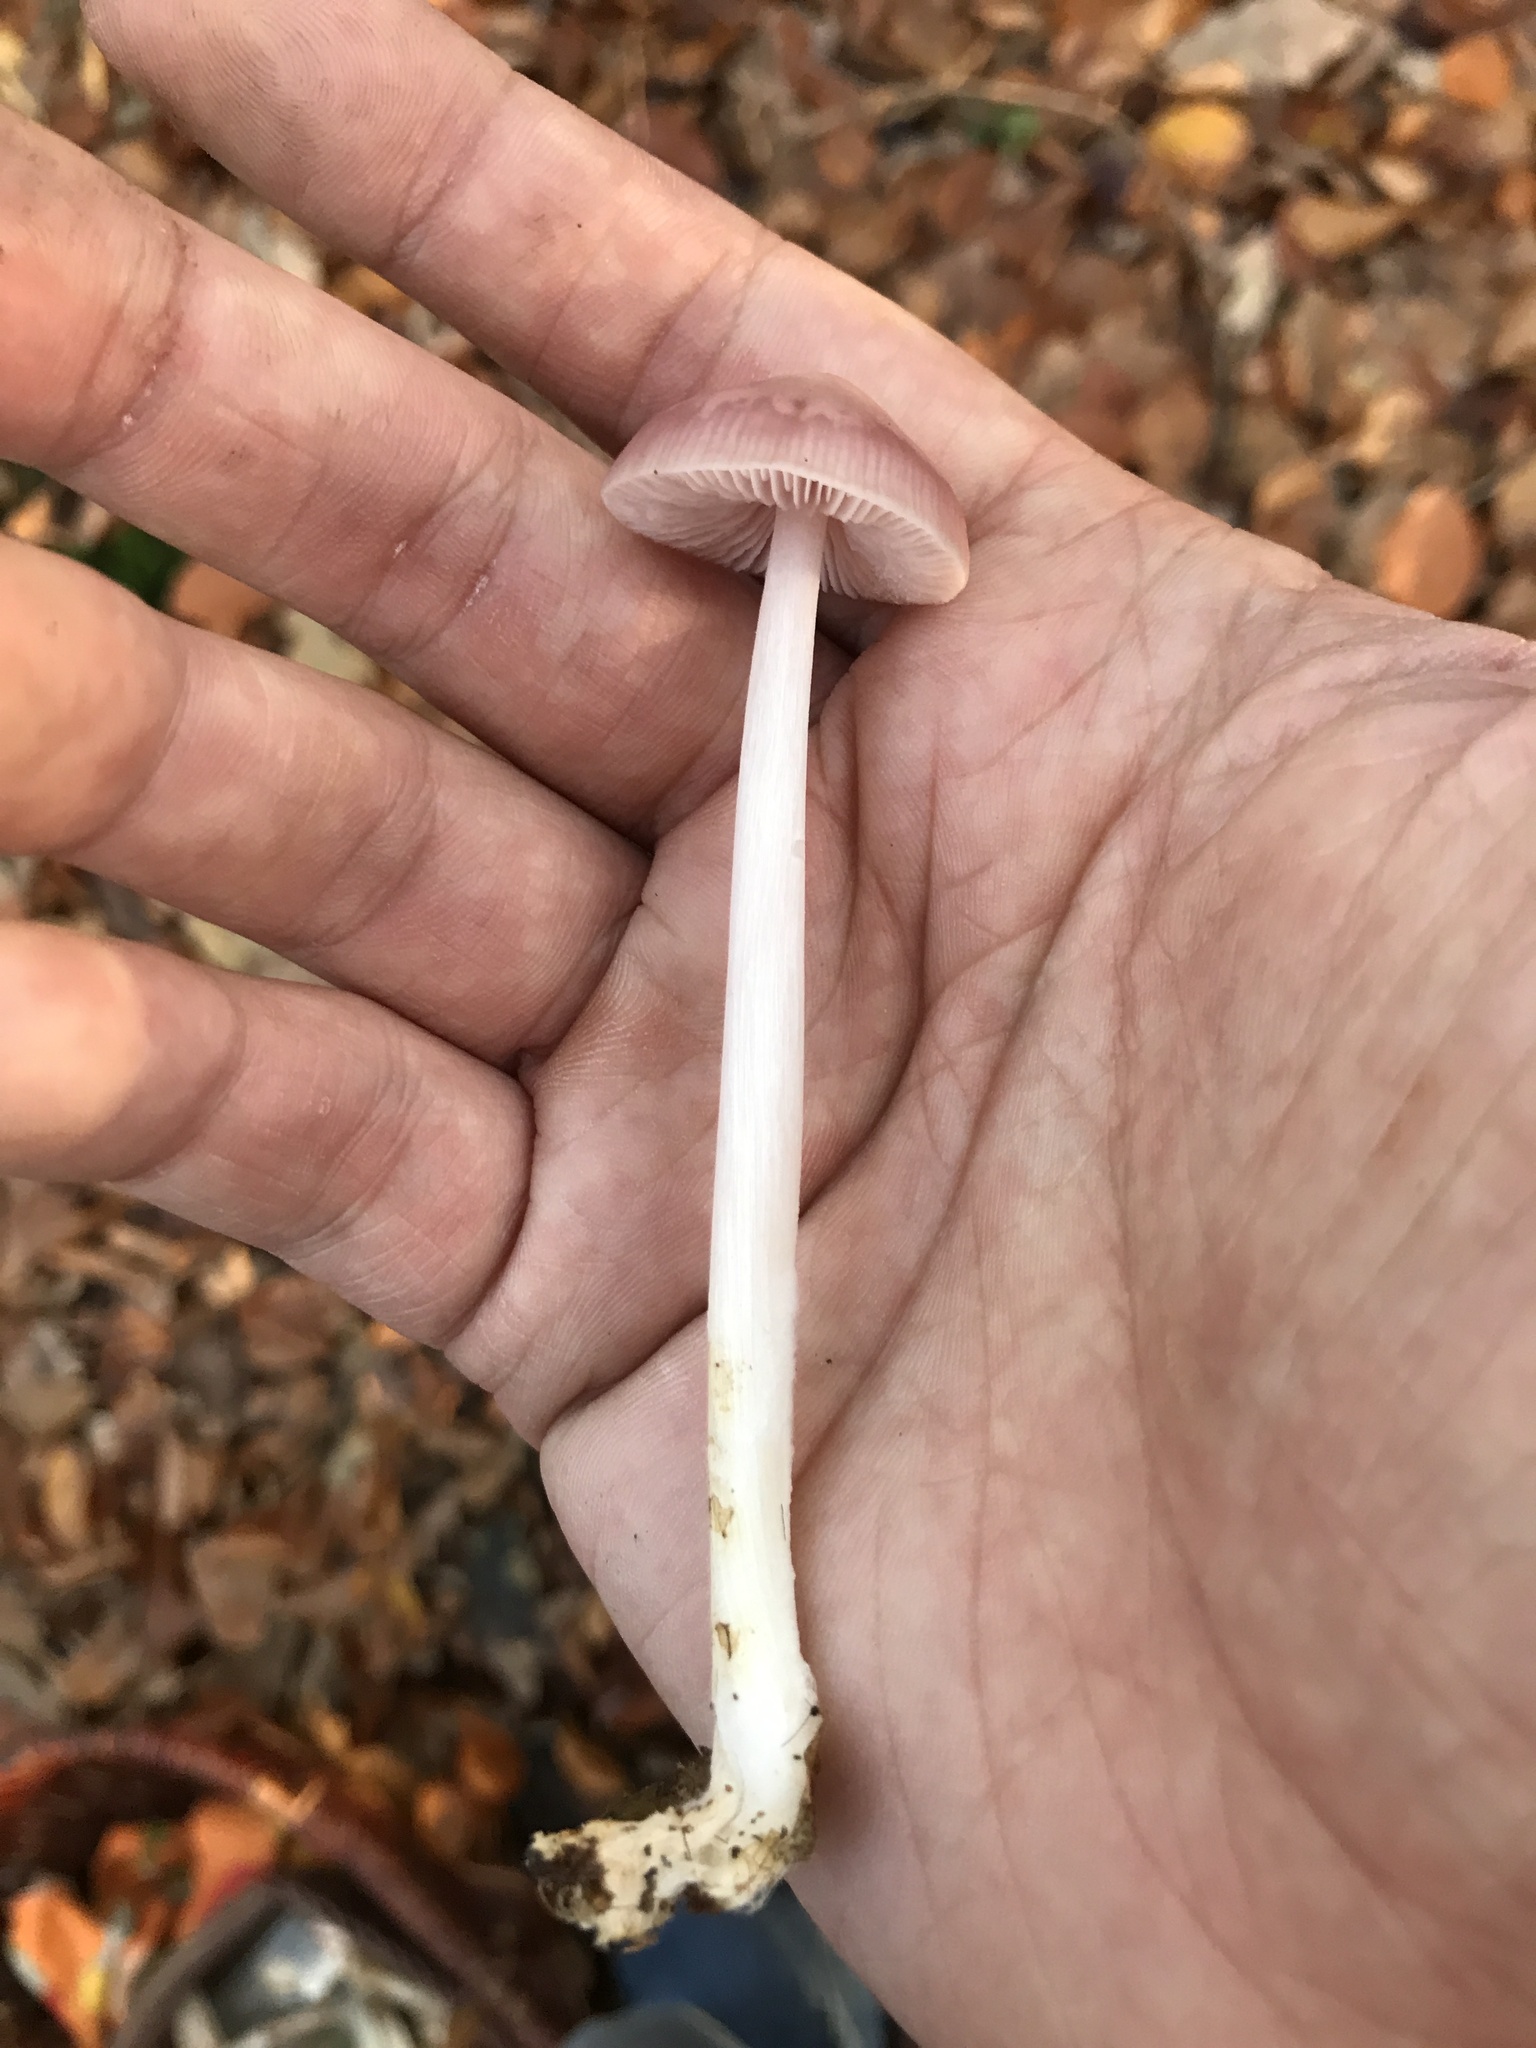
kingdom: Fungi
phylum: Basidiomycota
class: Agaricomycetes
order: Agaricales
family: Mycenaceae
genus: Mycena
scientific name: Mycena rosea
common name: Rosy bonnet
